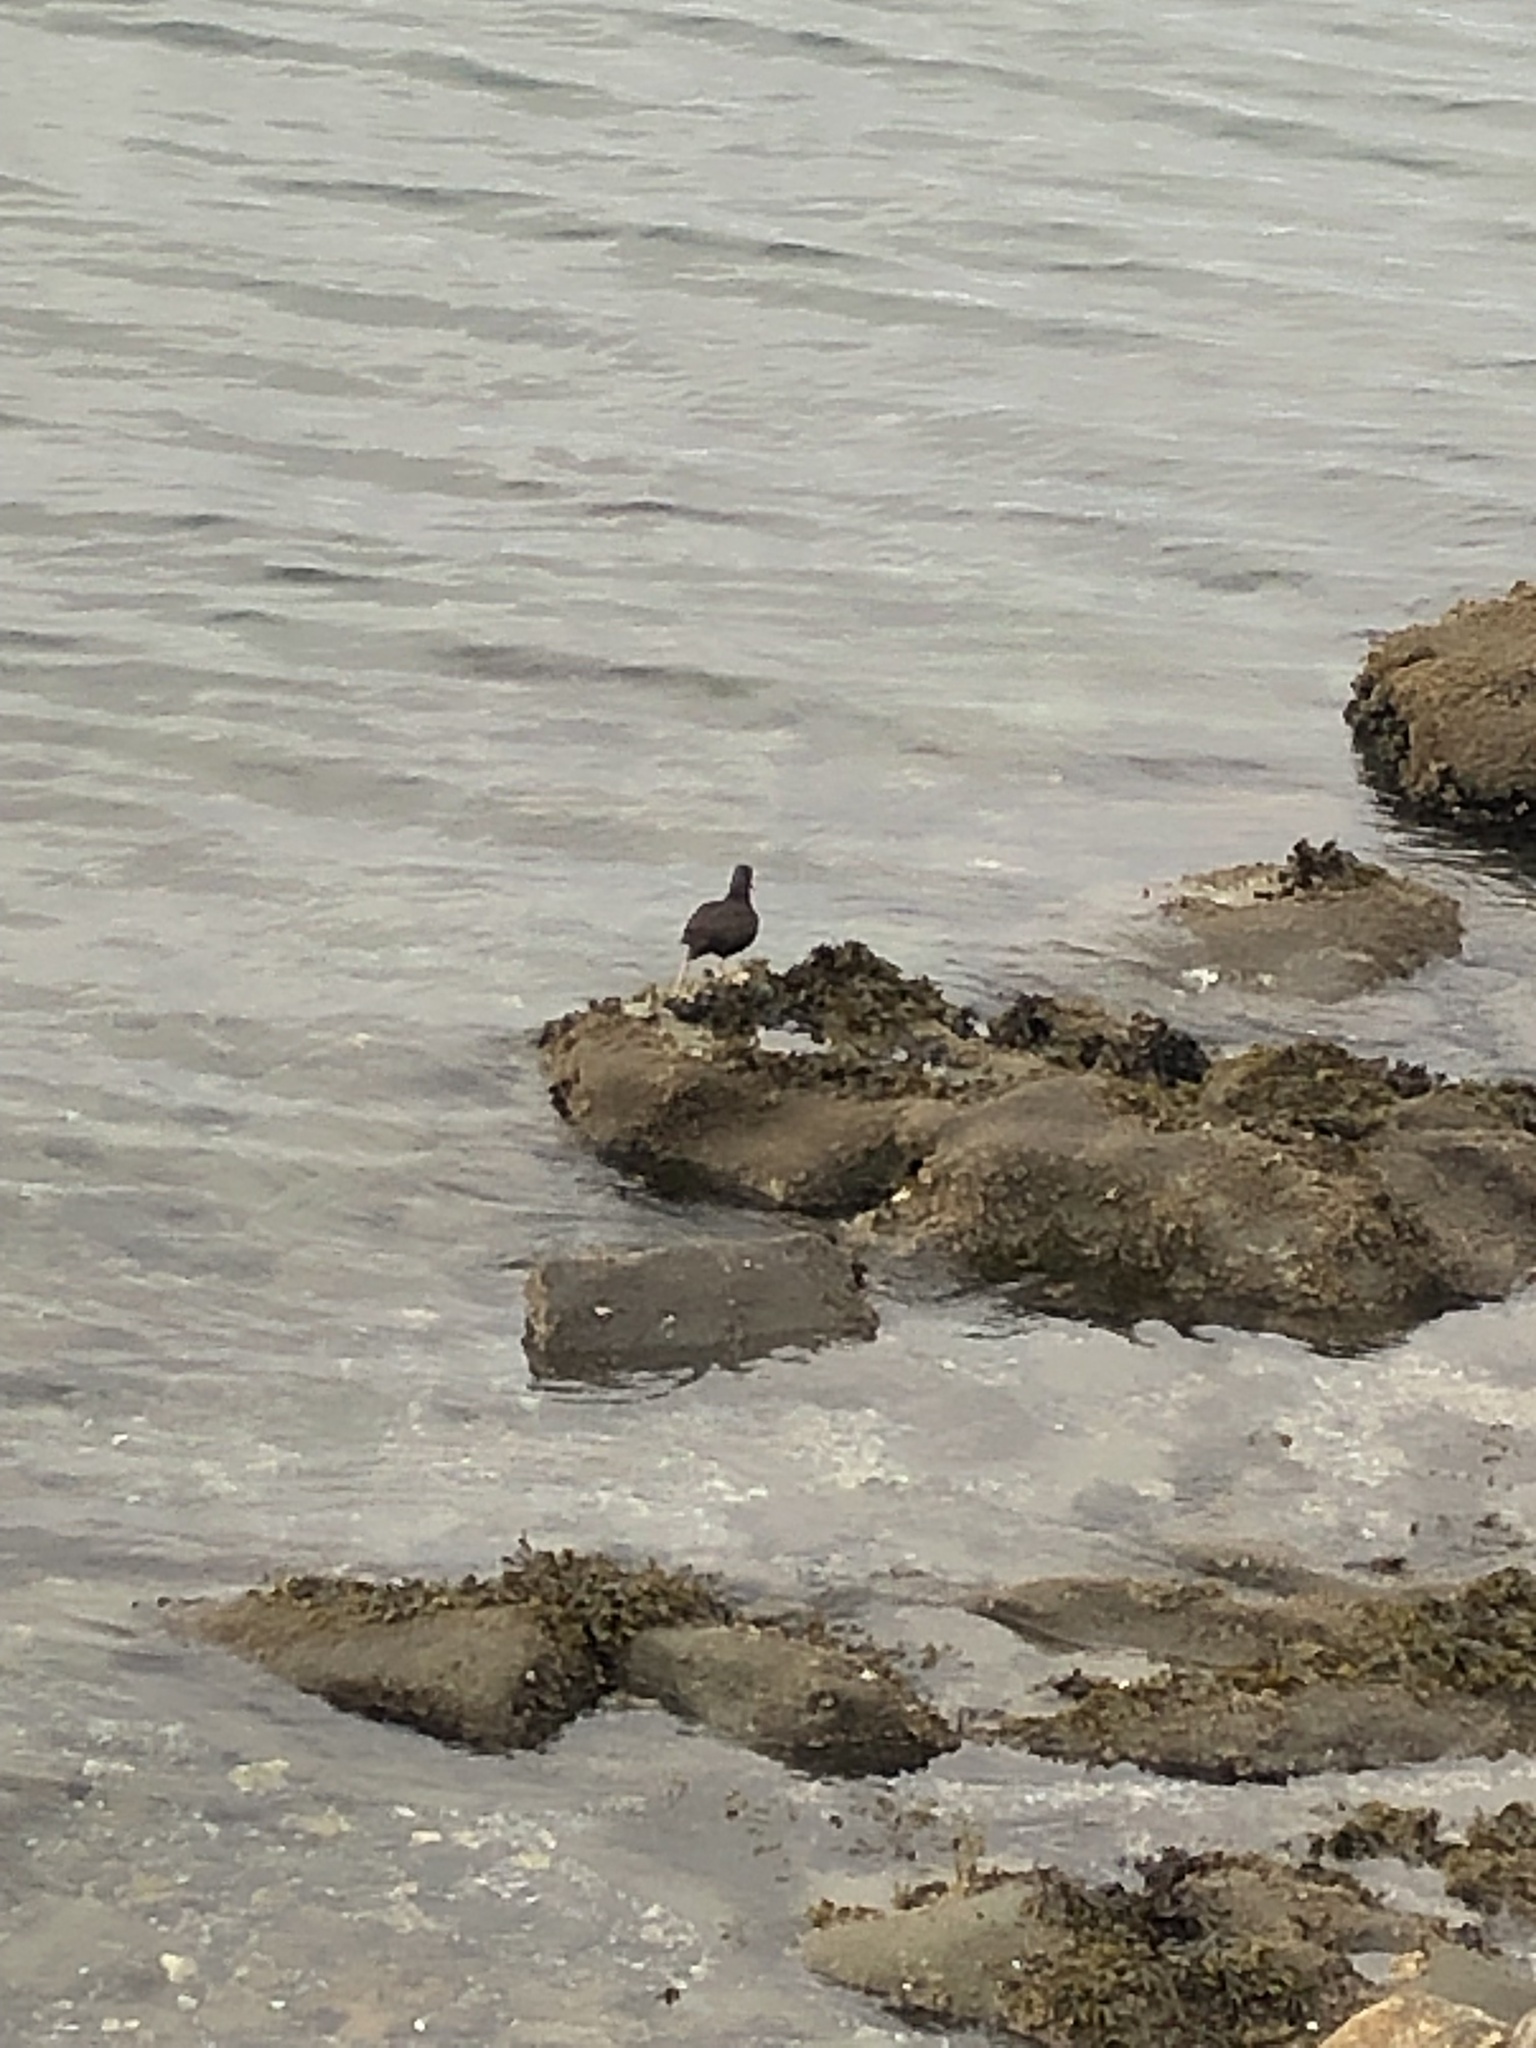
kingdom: Animalia
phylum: Chordata
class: Aves
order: Charadriiformes
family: Haematopodidae
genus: Haematopus
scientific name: Haematopus bachmani
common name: Black oystercatcher
